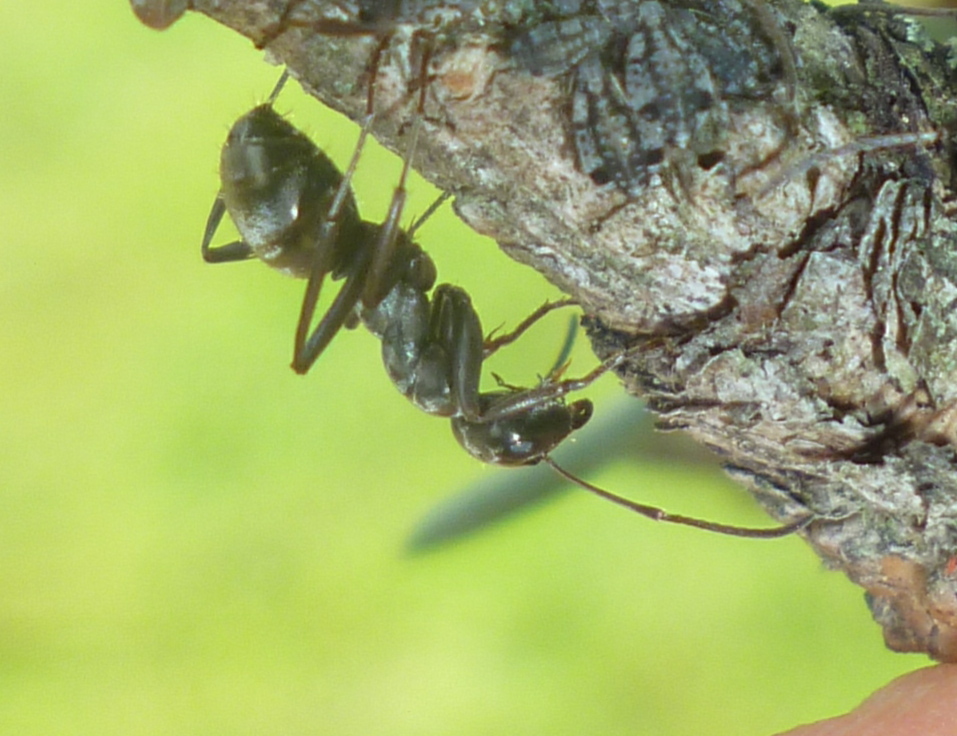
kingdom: Animalia
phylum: Arthropoda
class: Insecta
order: Hymenoptera
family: Formicidae
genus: Formica
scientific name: Formica
